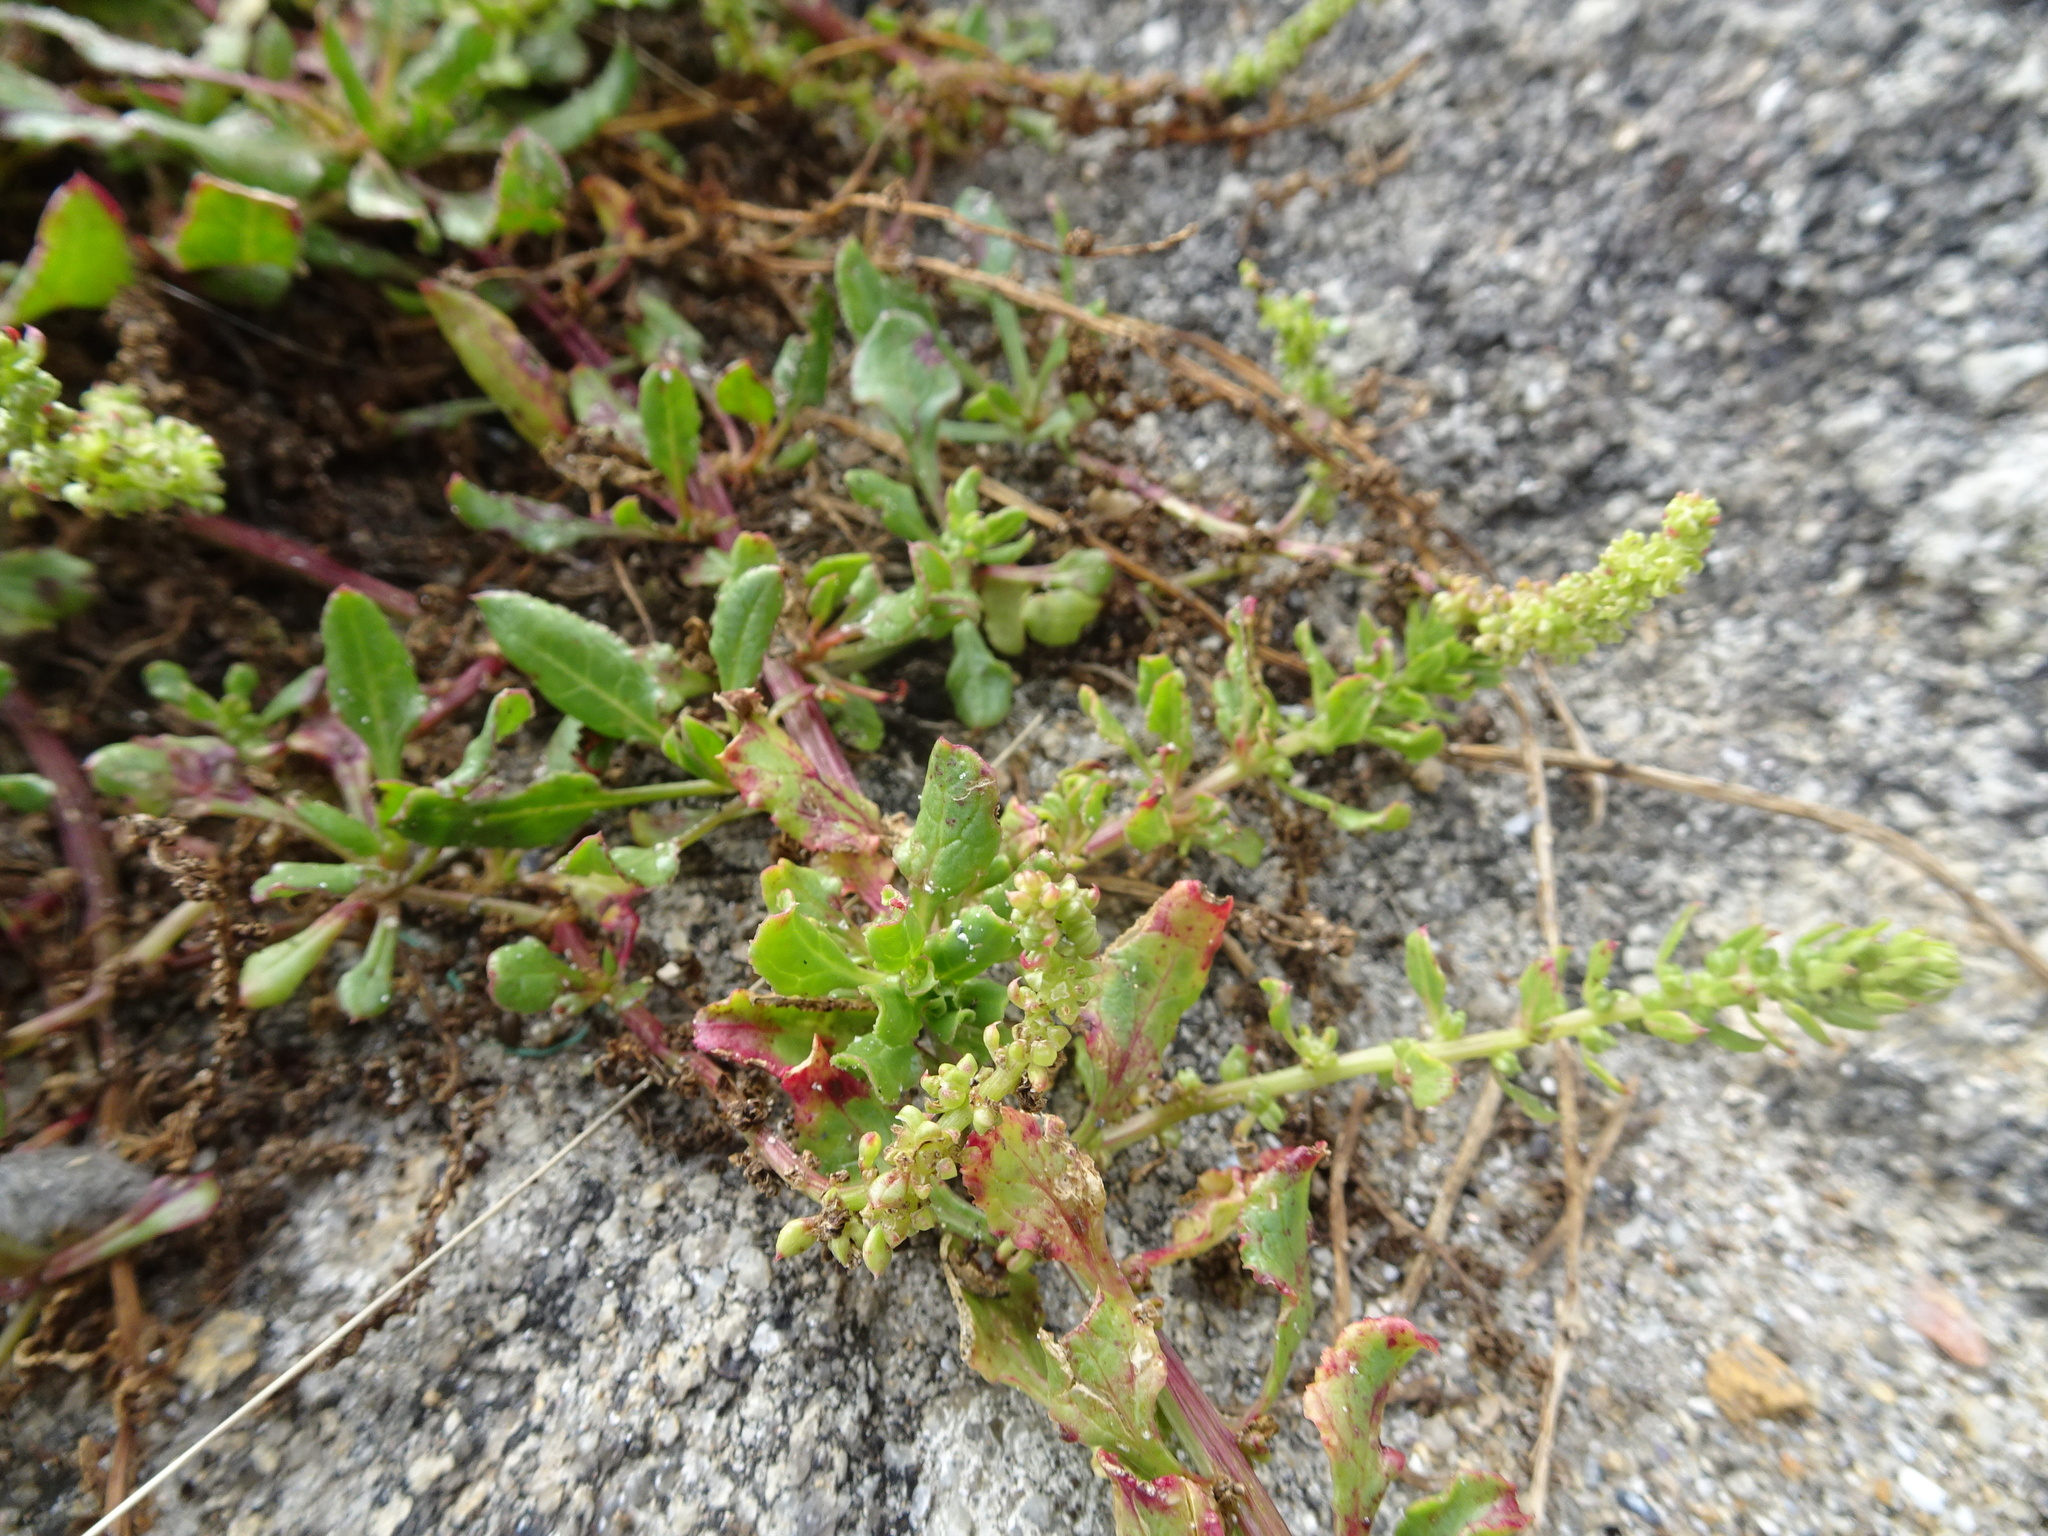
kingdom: Plantae
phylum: Tracheophyta
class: Magnoliopsida
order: Caryophyllales
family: Amaranthaceae
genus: Beta
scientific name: Beta vulgaris
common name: Beet
